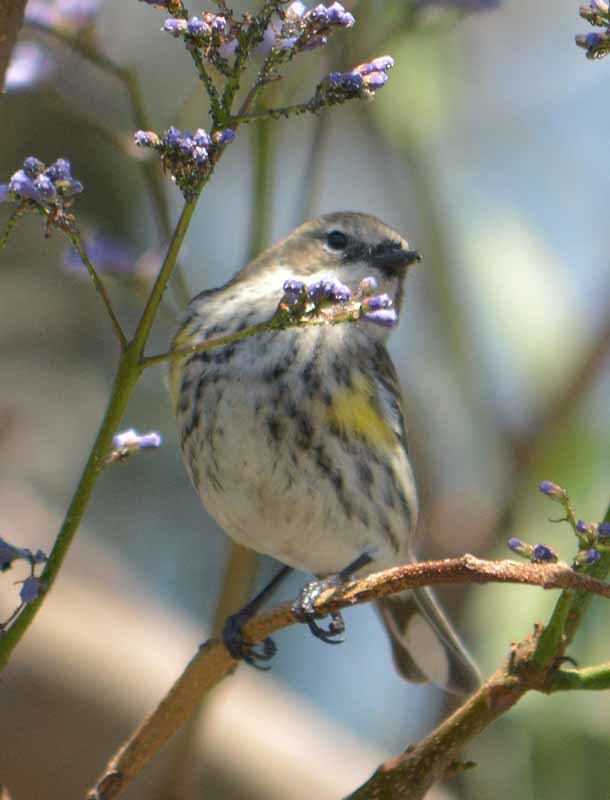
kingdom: Animalia
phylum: Chordata
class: Aves
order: Passeriformes
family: Parulidae
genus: Setophaga
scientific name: Setophaga coronata
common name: Myrtle warbler
